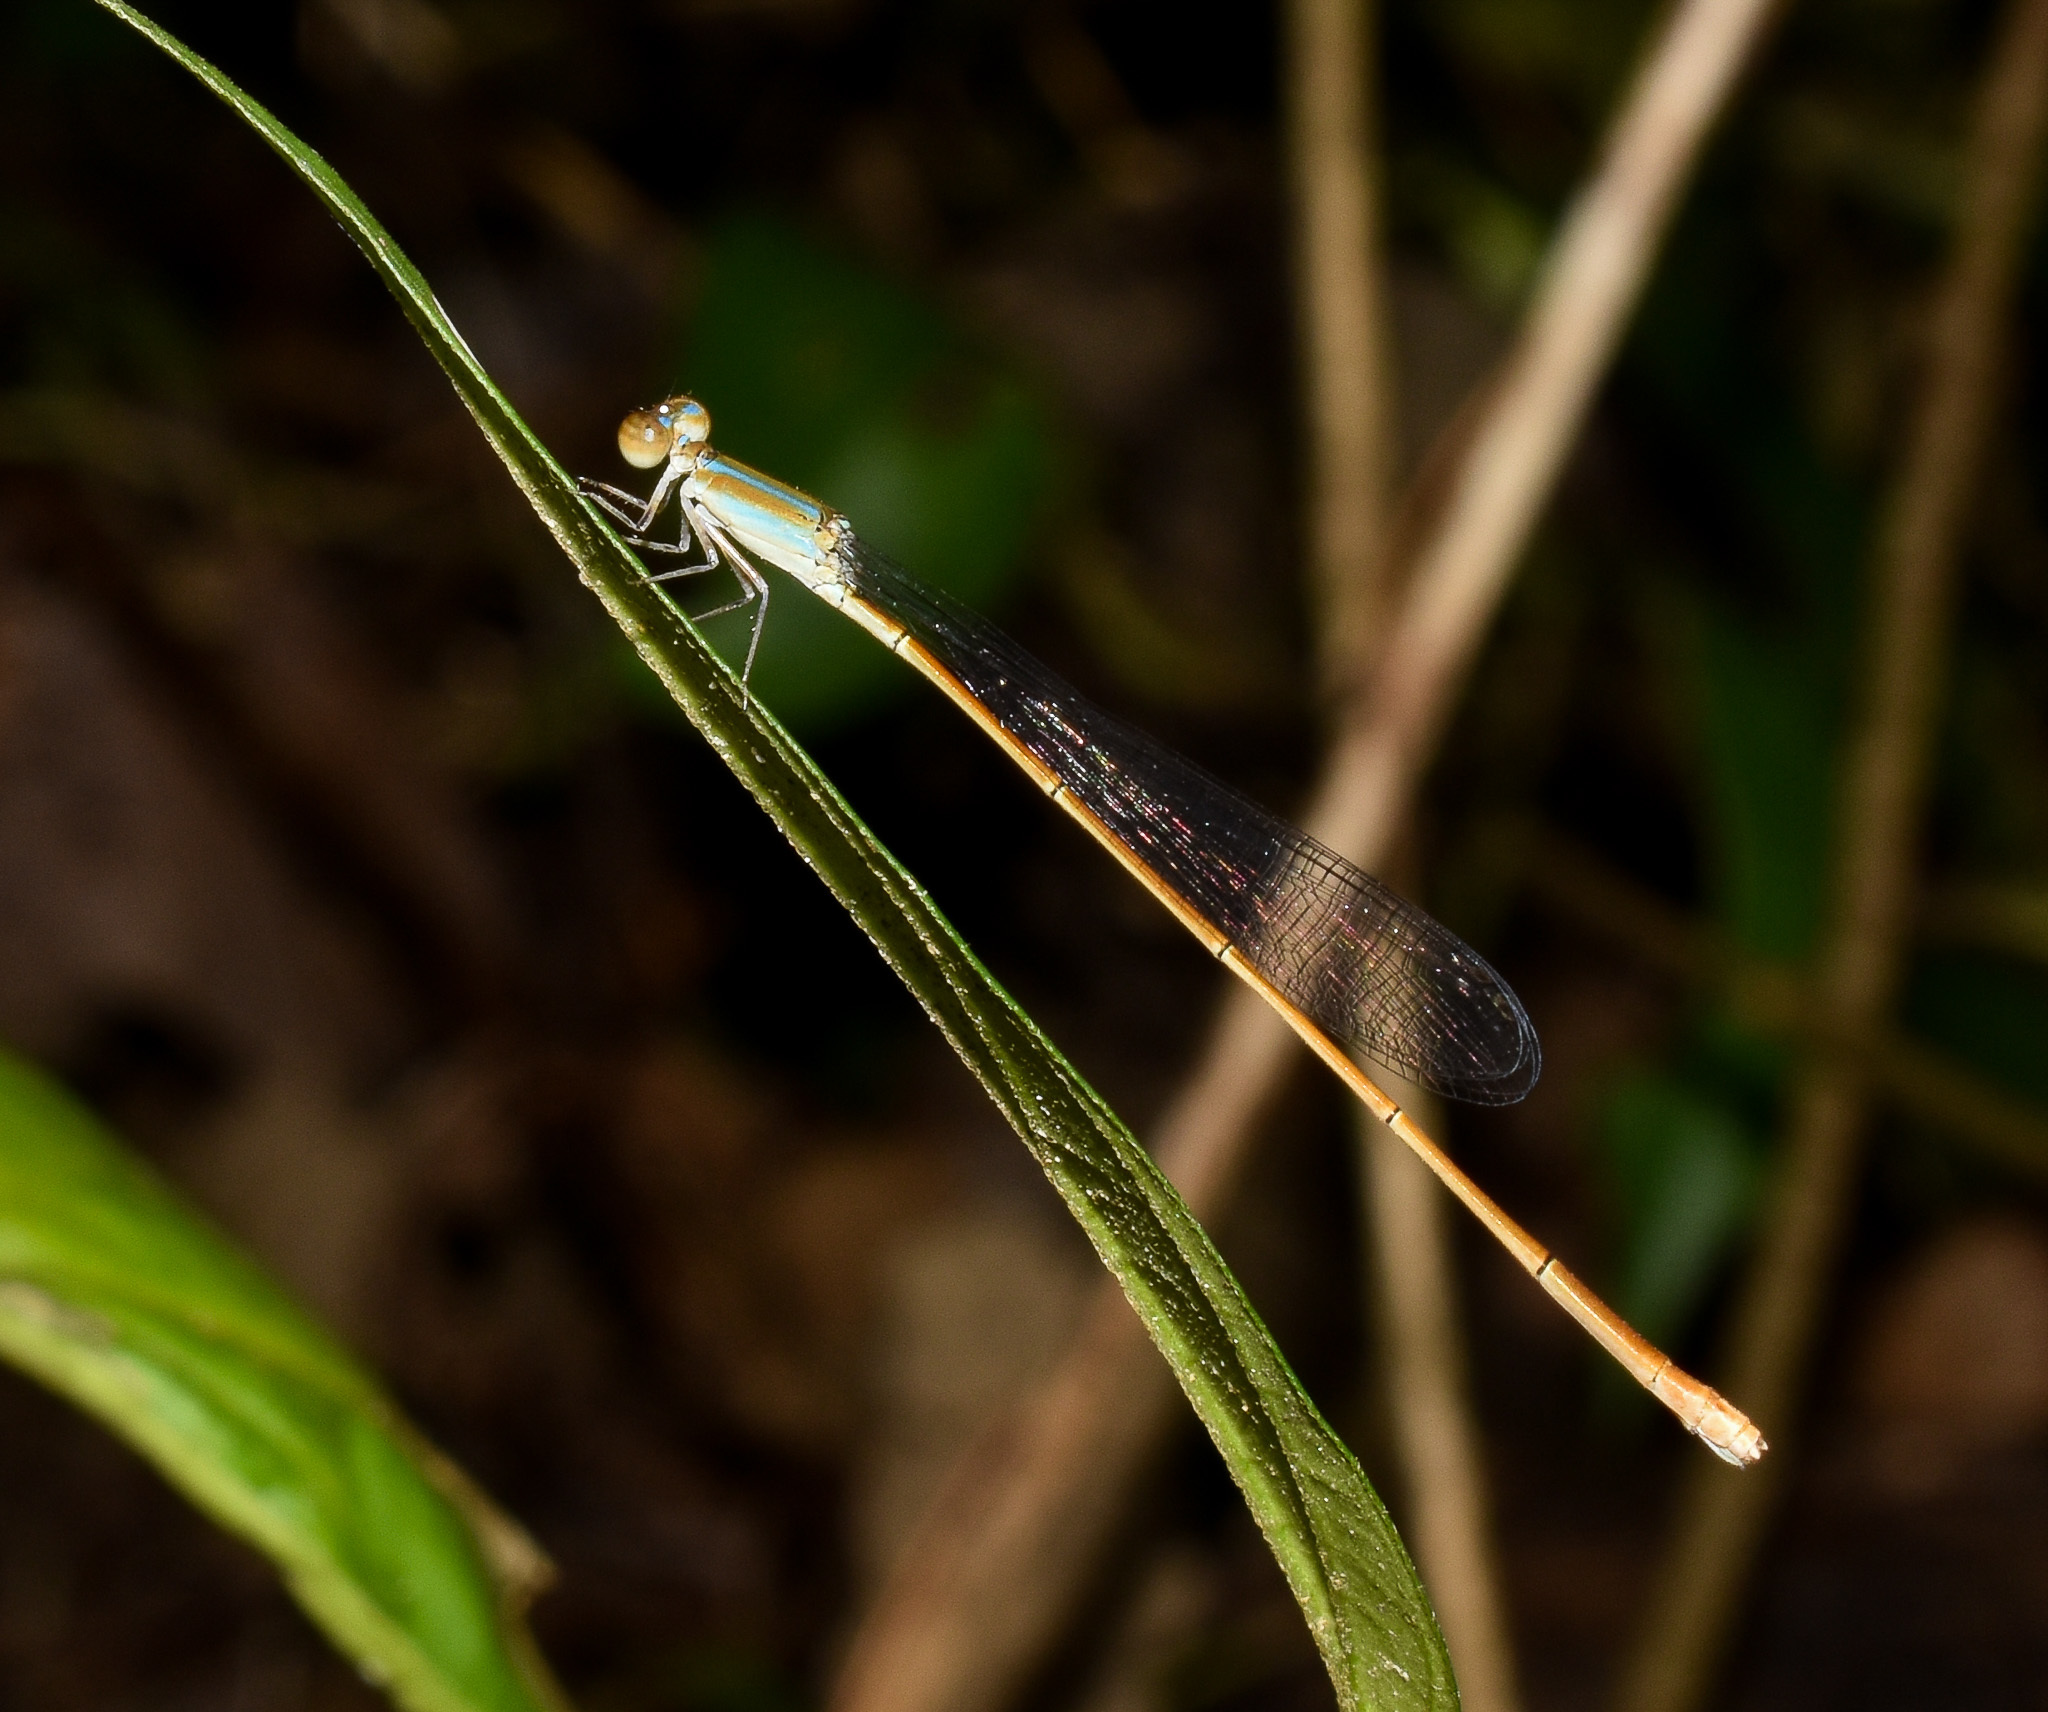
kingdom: Animalia
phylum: Arthropoda
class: Insecta
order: Odonata
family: Coenagrionidae
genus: Aciagrion
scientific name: Aciagrion pallidum
